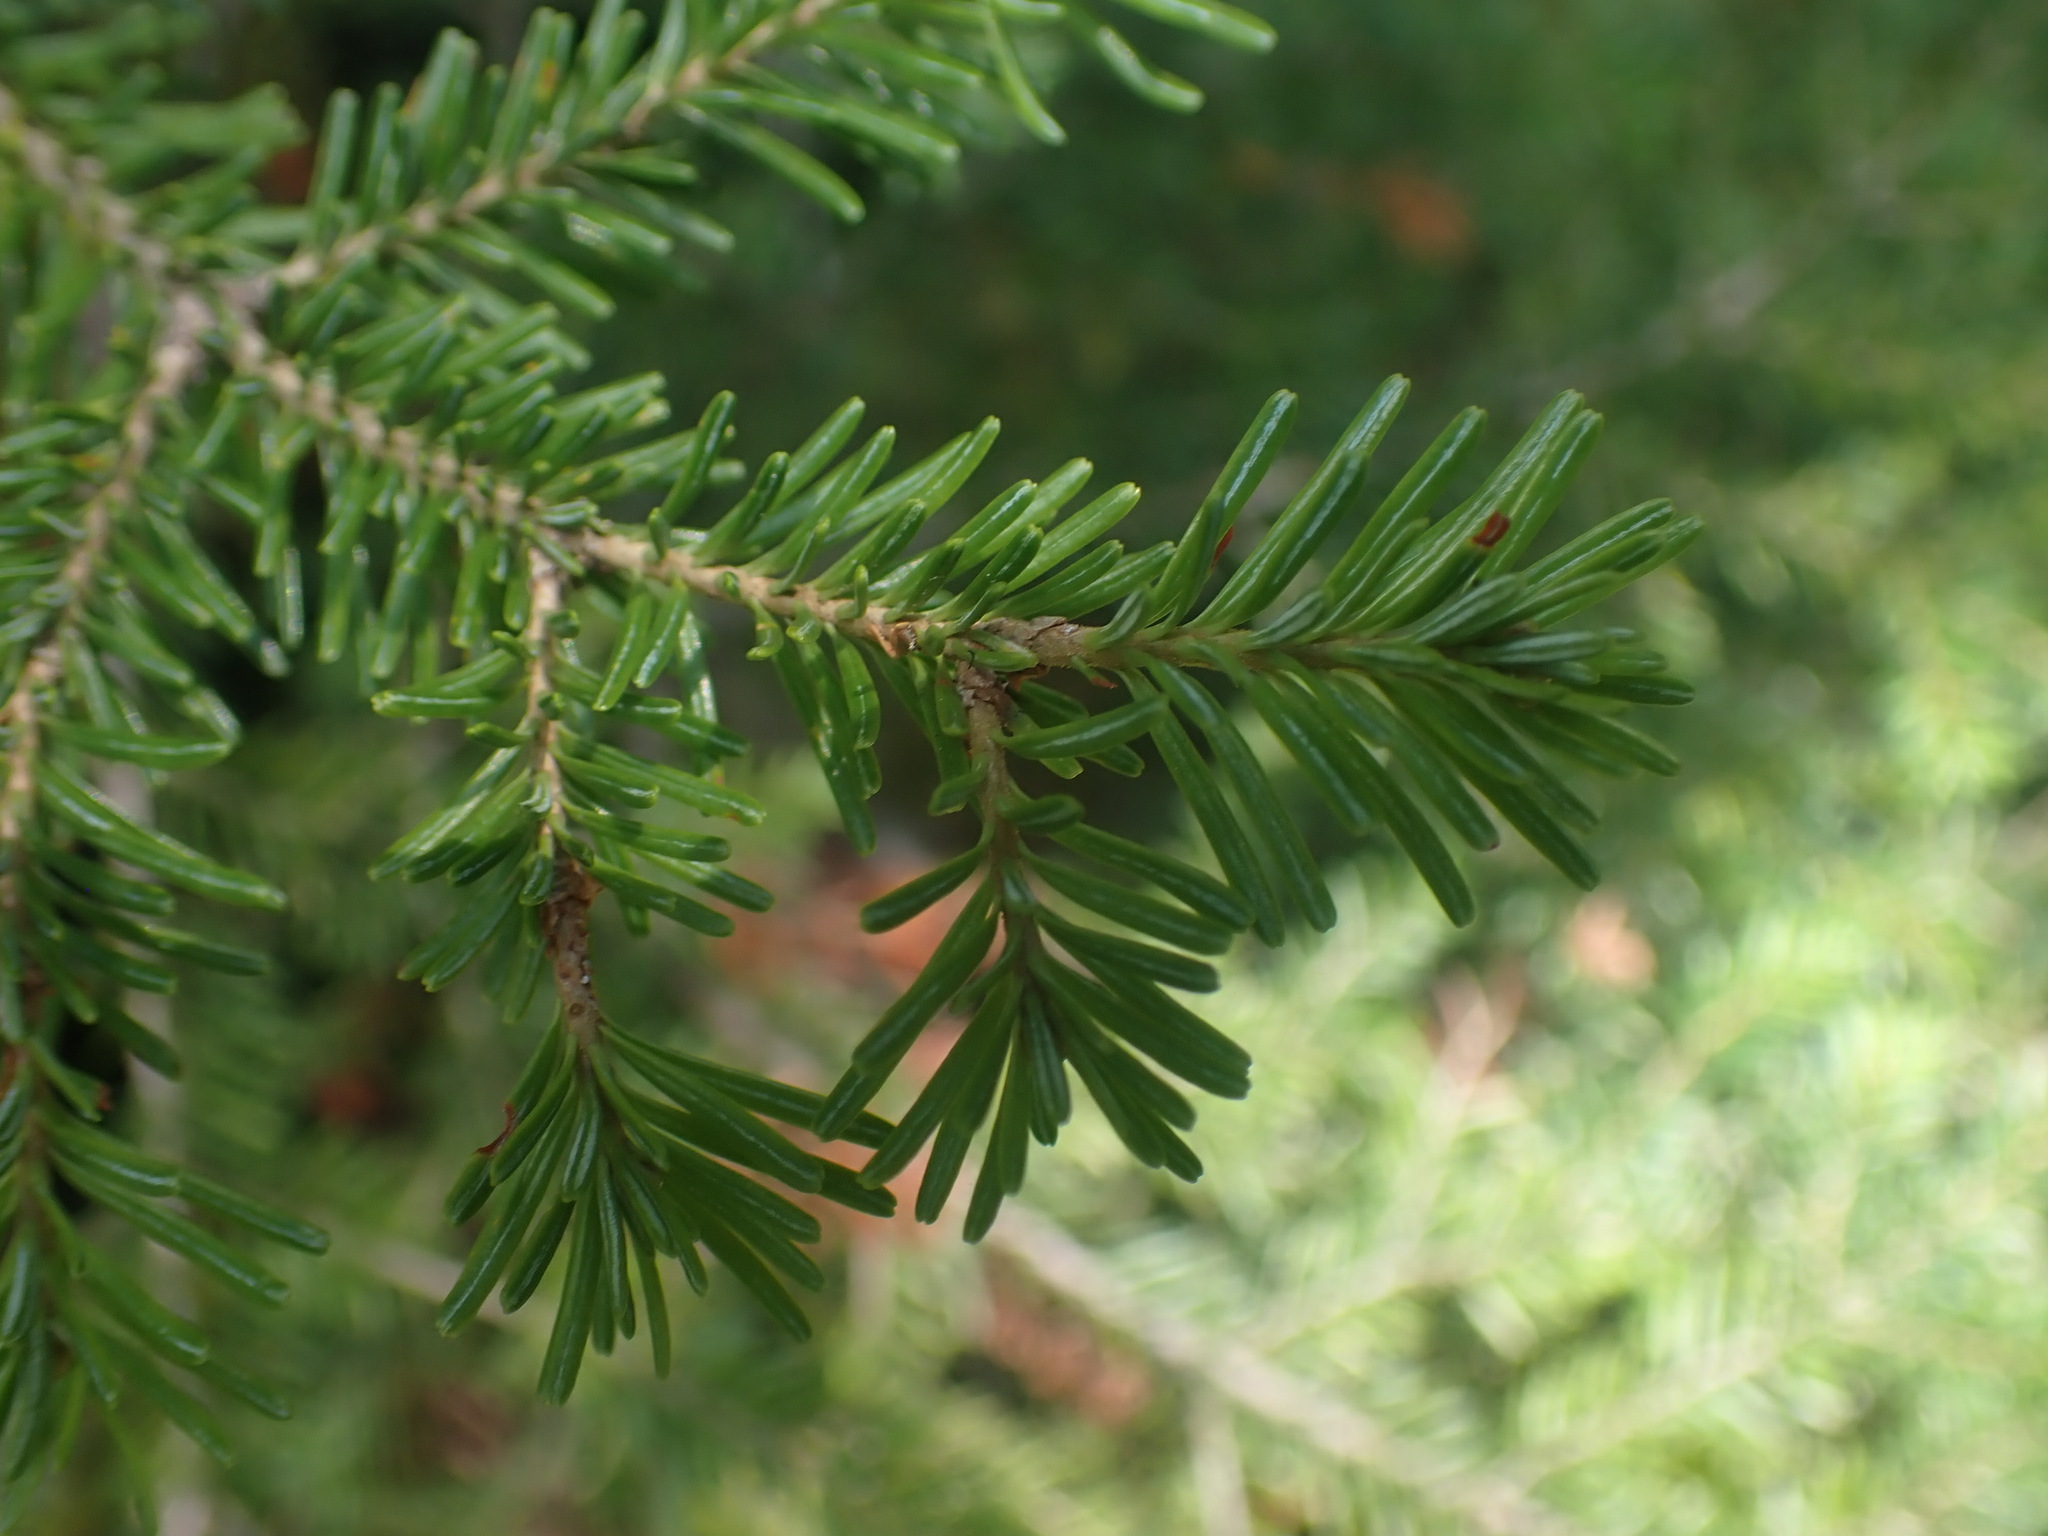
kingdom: Plantae
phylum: Tracheophyta
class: Pinopsida
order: Pinales
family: Pinaceae
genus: Abies
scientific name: Abies lasiocarpa
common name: Subalpine fir
